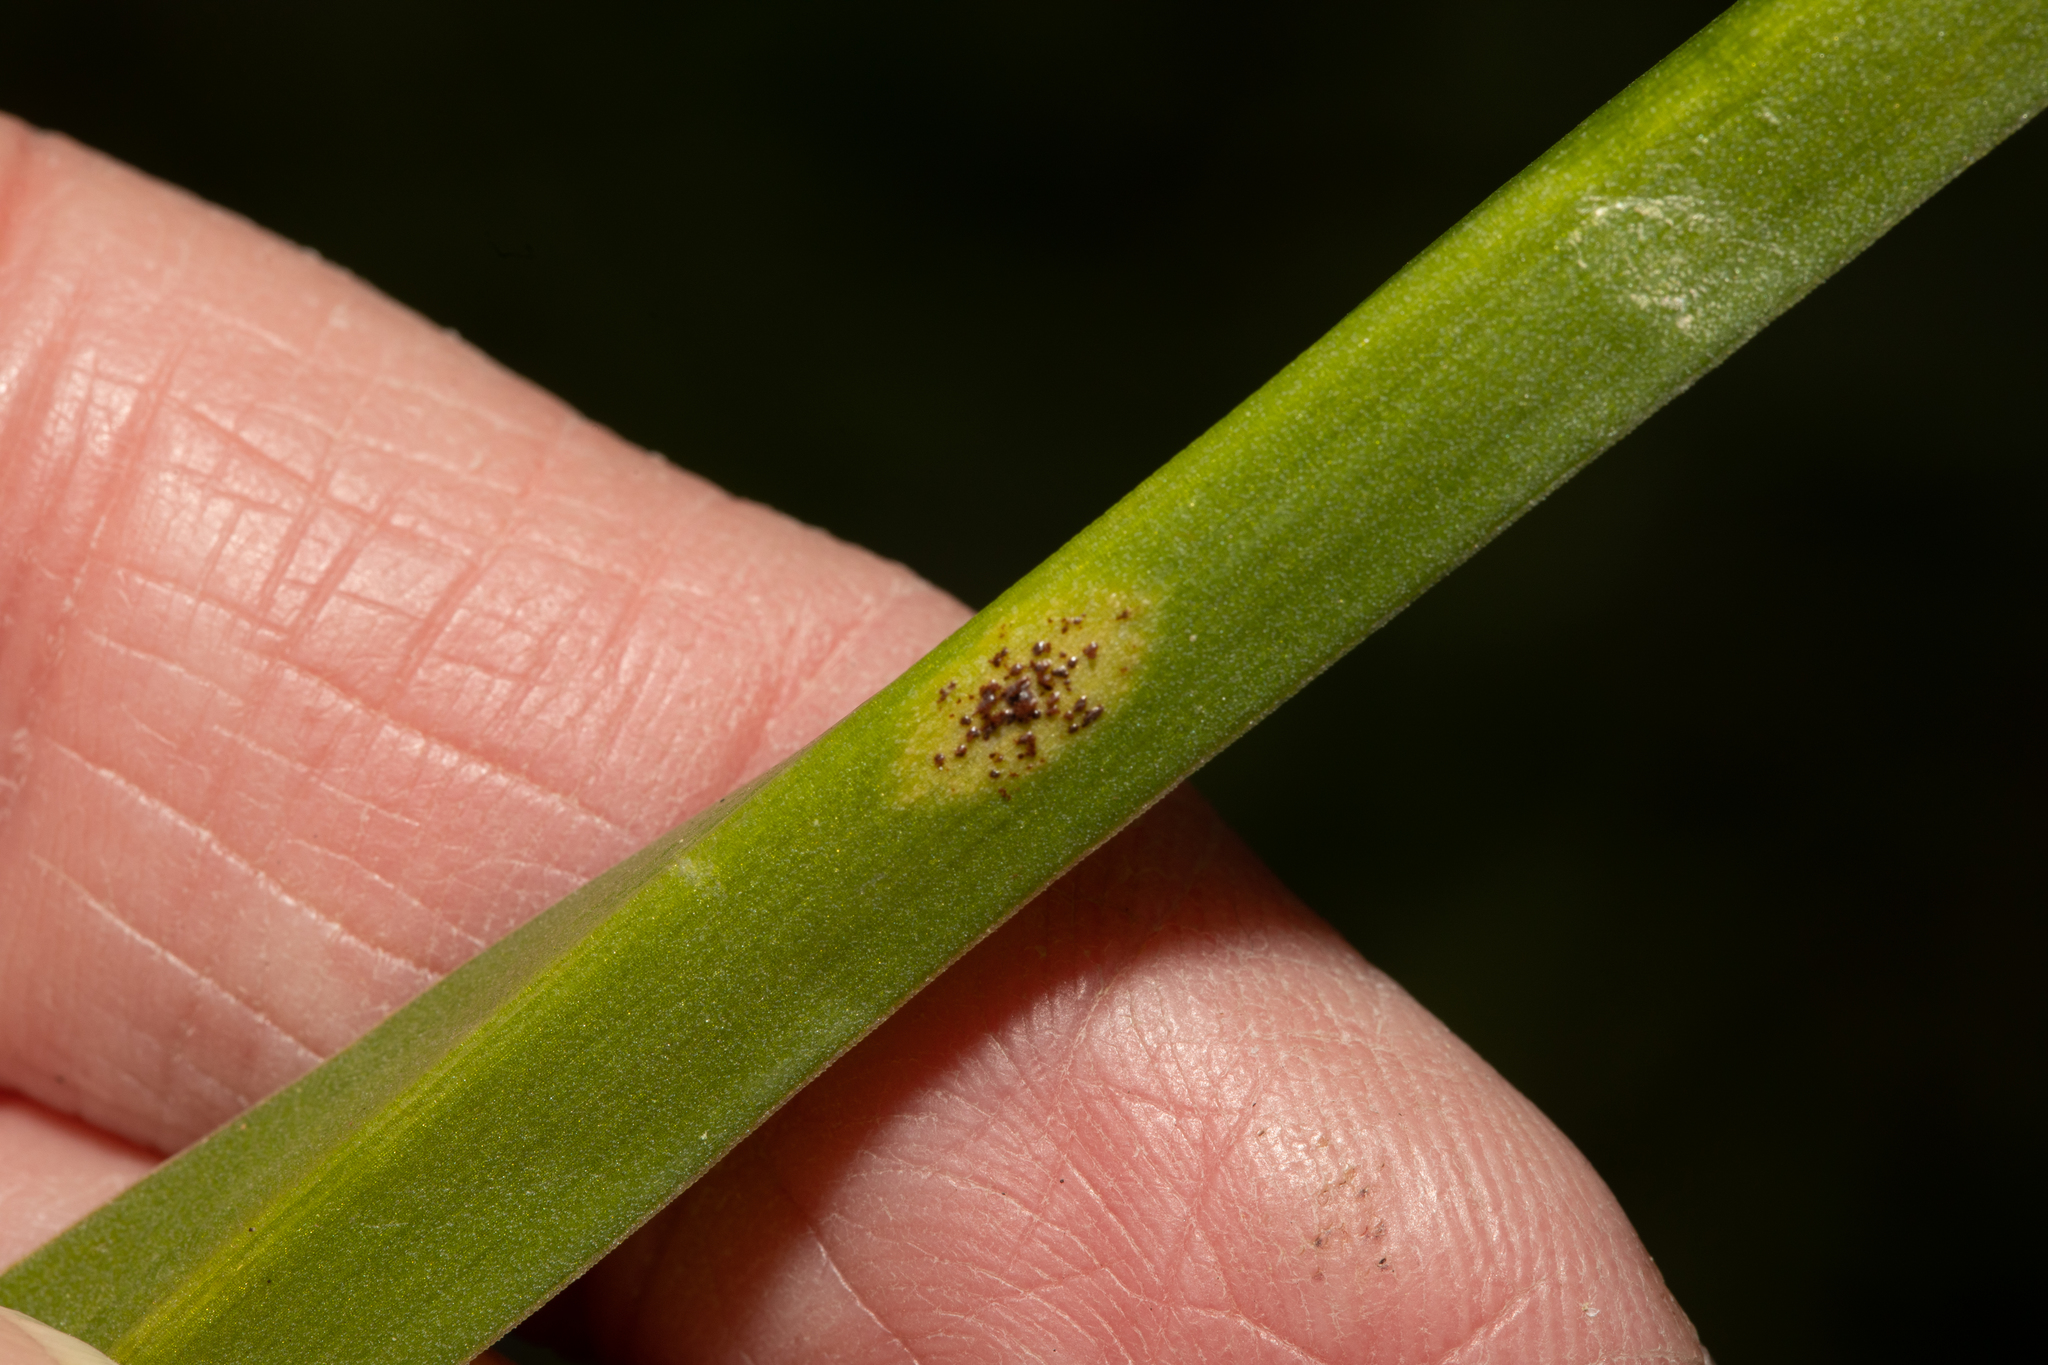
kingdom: Fungi
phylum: Basidiomycota
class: Pucciniomycetes
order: Pucciniales
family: Pucciniaceae
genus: Uromyces
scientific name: Uromyces hyacinthi
